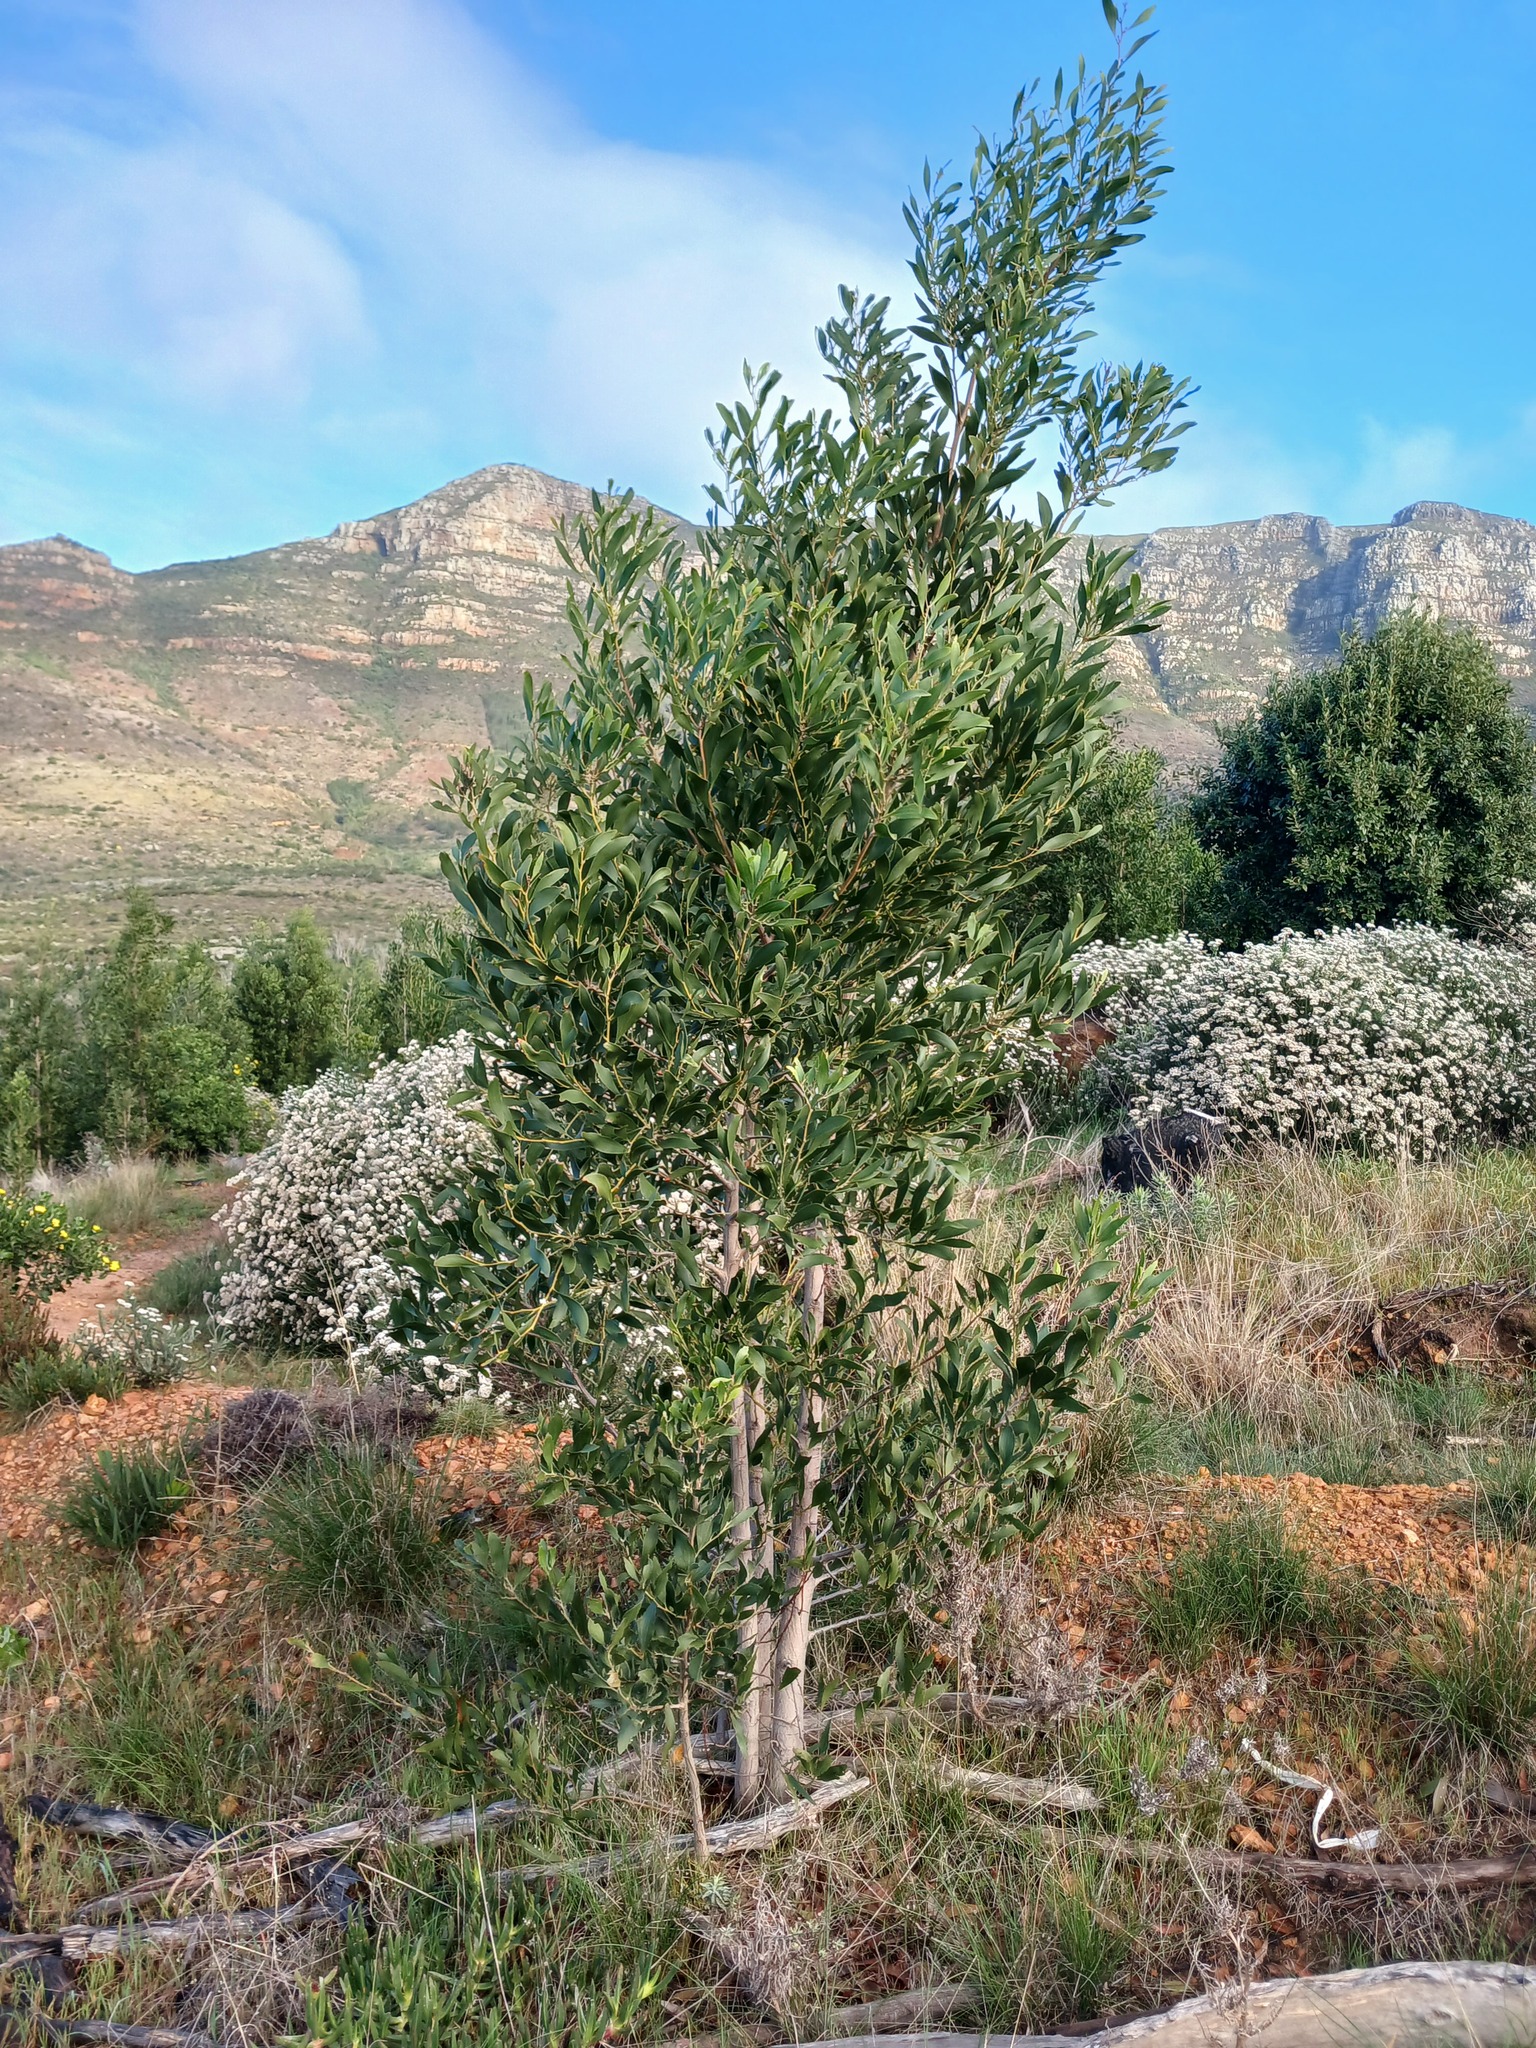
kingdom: Plantae
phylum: Tracheophyta
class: Magnoliopsida
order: Fabales
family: Fabaceae
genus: Acacia
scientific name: Acacia melanoxylon
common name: Blackwood
